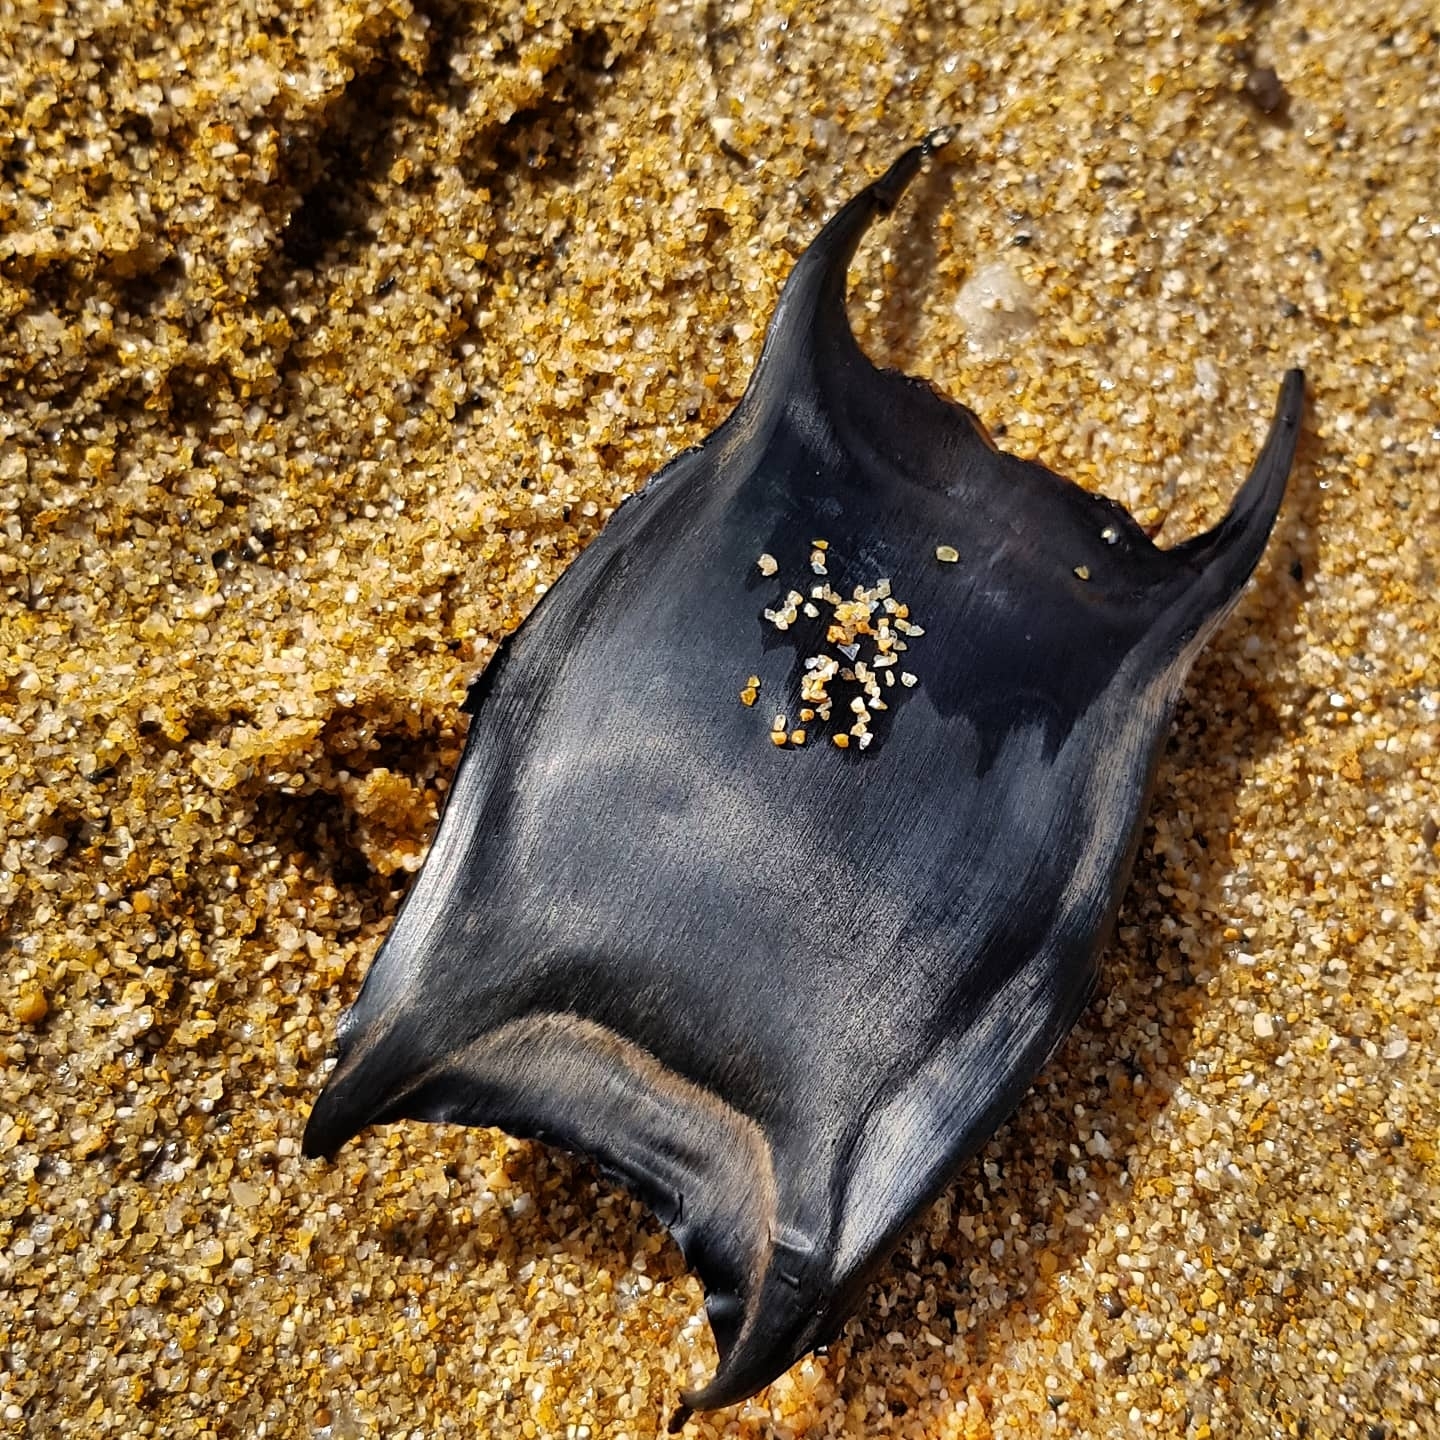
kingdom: Animalia
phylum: Chordata
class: Elasmobranchii
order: Rajiformes
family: Rajidae
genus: Raja
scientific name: Raja clavata
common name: Thornback ray
